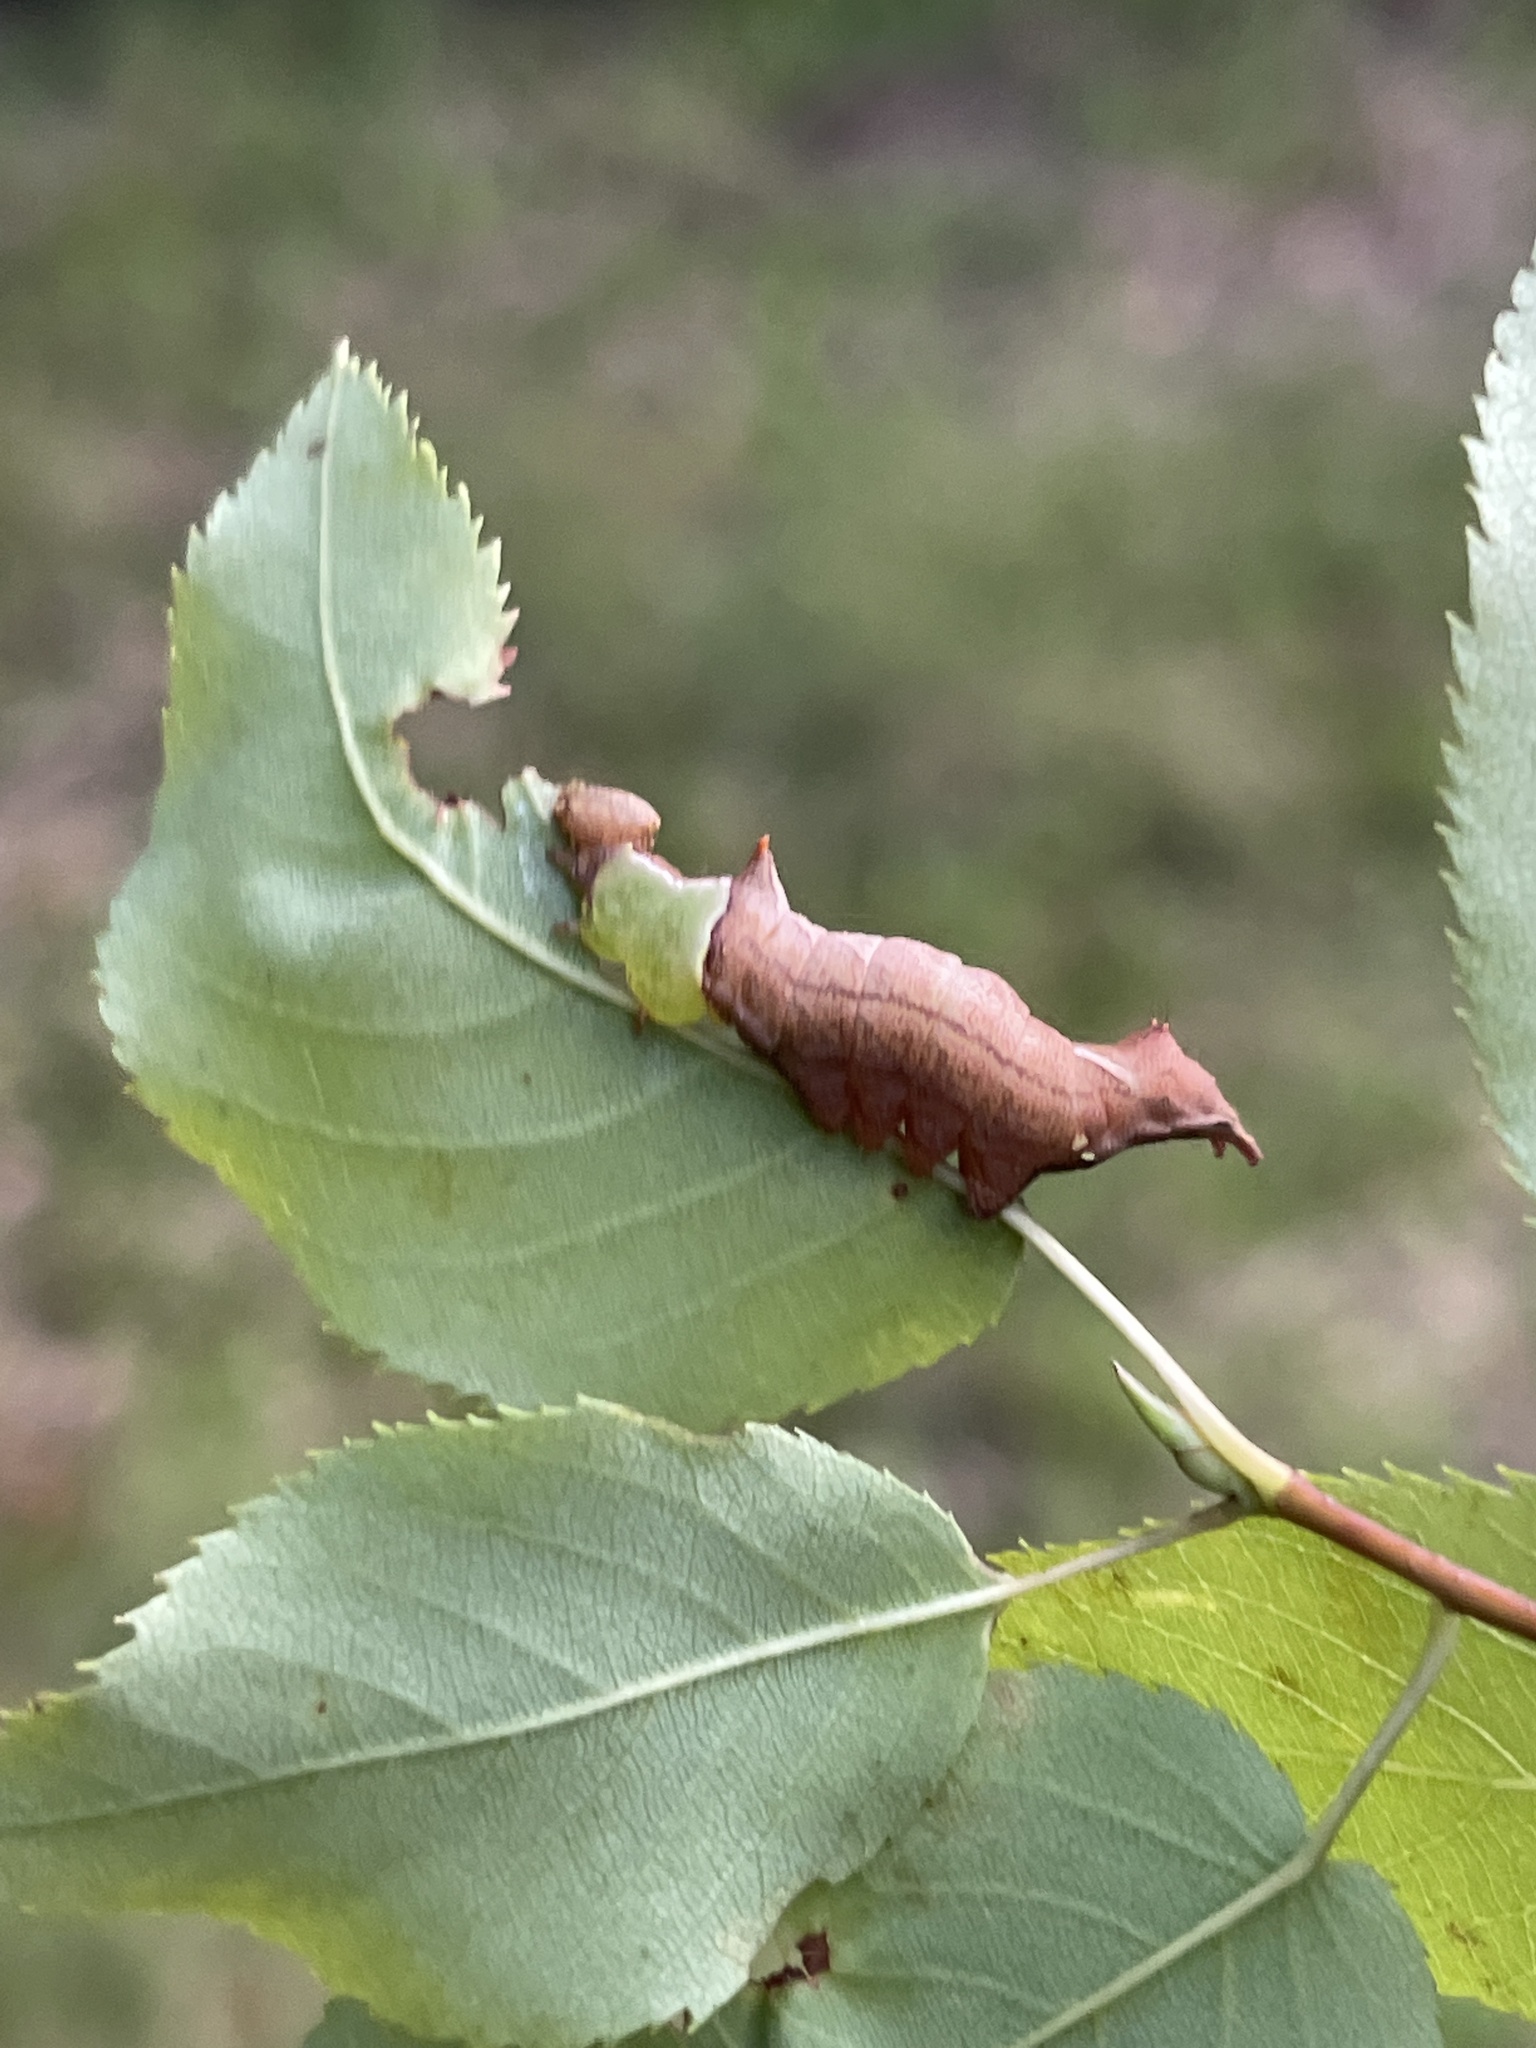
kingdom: Animalia
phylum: Arthropoda
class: Insecta
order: Lepidoptera
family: Notodontidae
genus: Schizura
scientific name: Schizura
